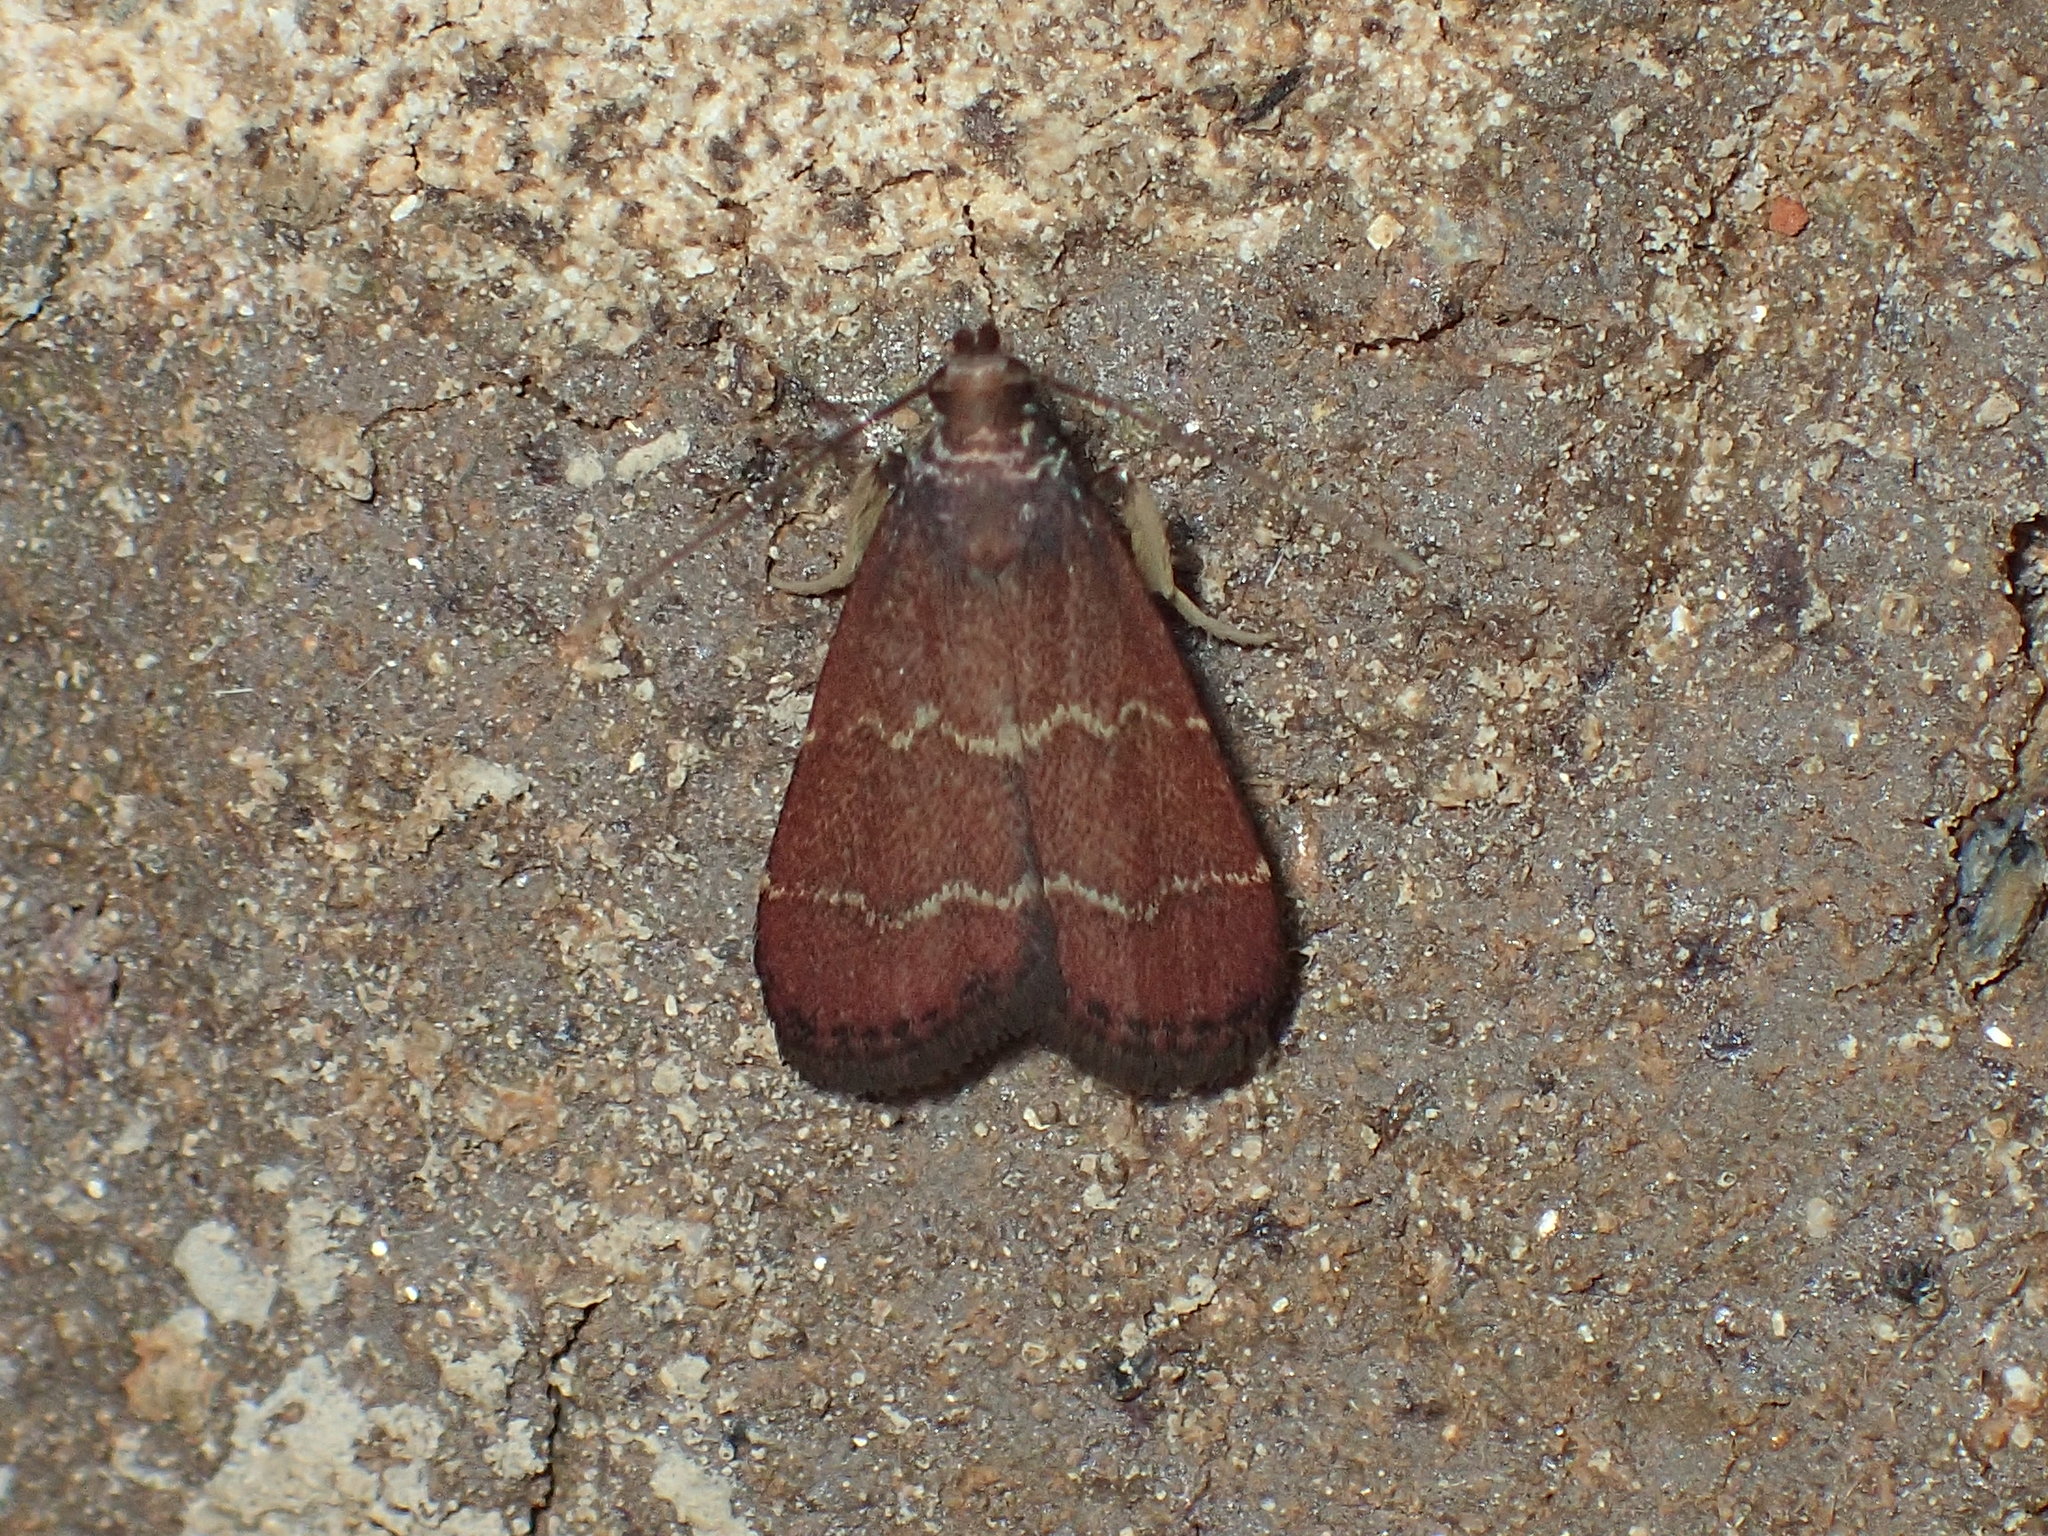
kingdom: Animalia
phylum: Arthropoda
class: Insecta
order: Lepidoptera
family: Pyralidae
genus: Arta
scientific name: Arta
